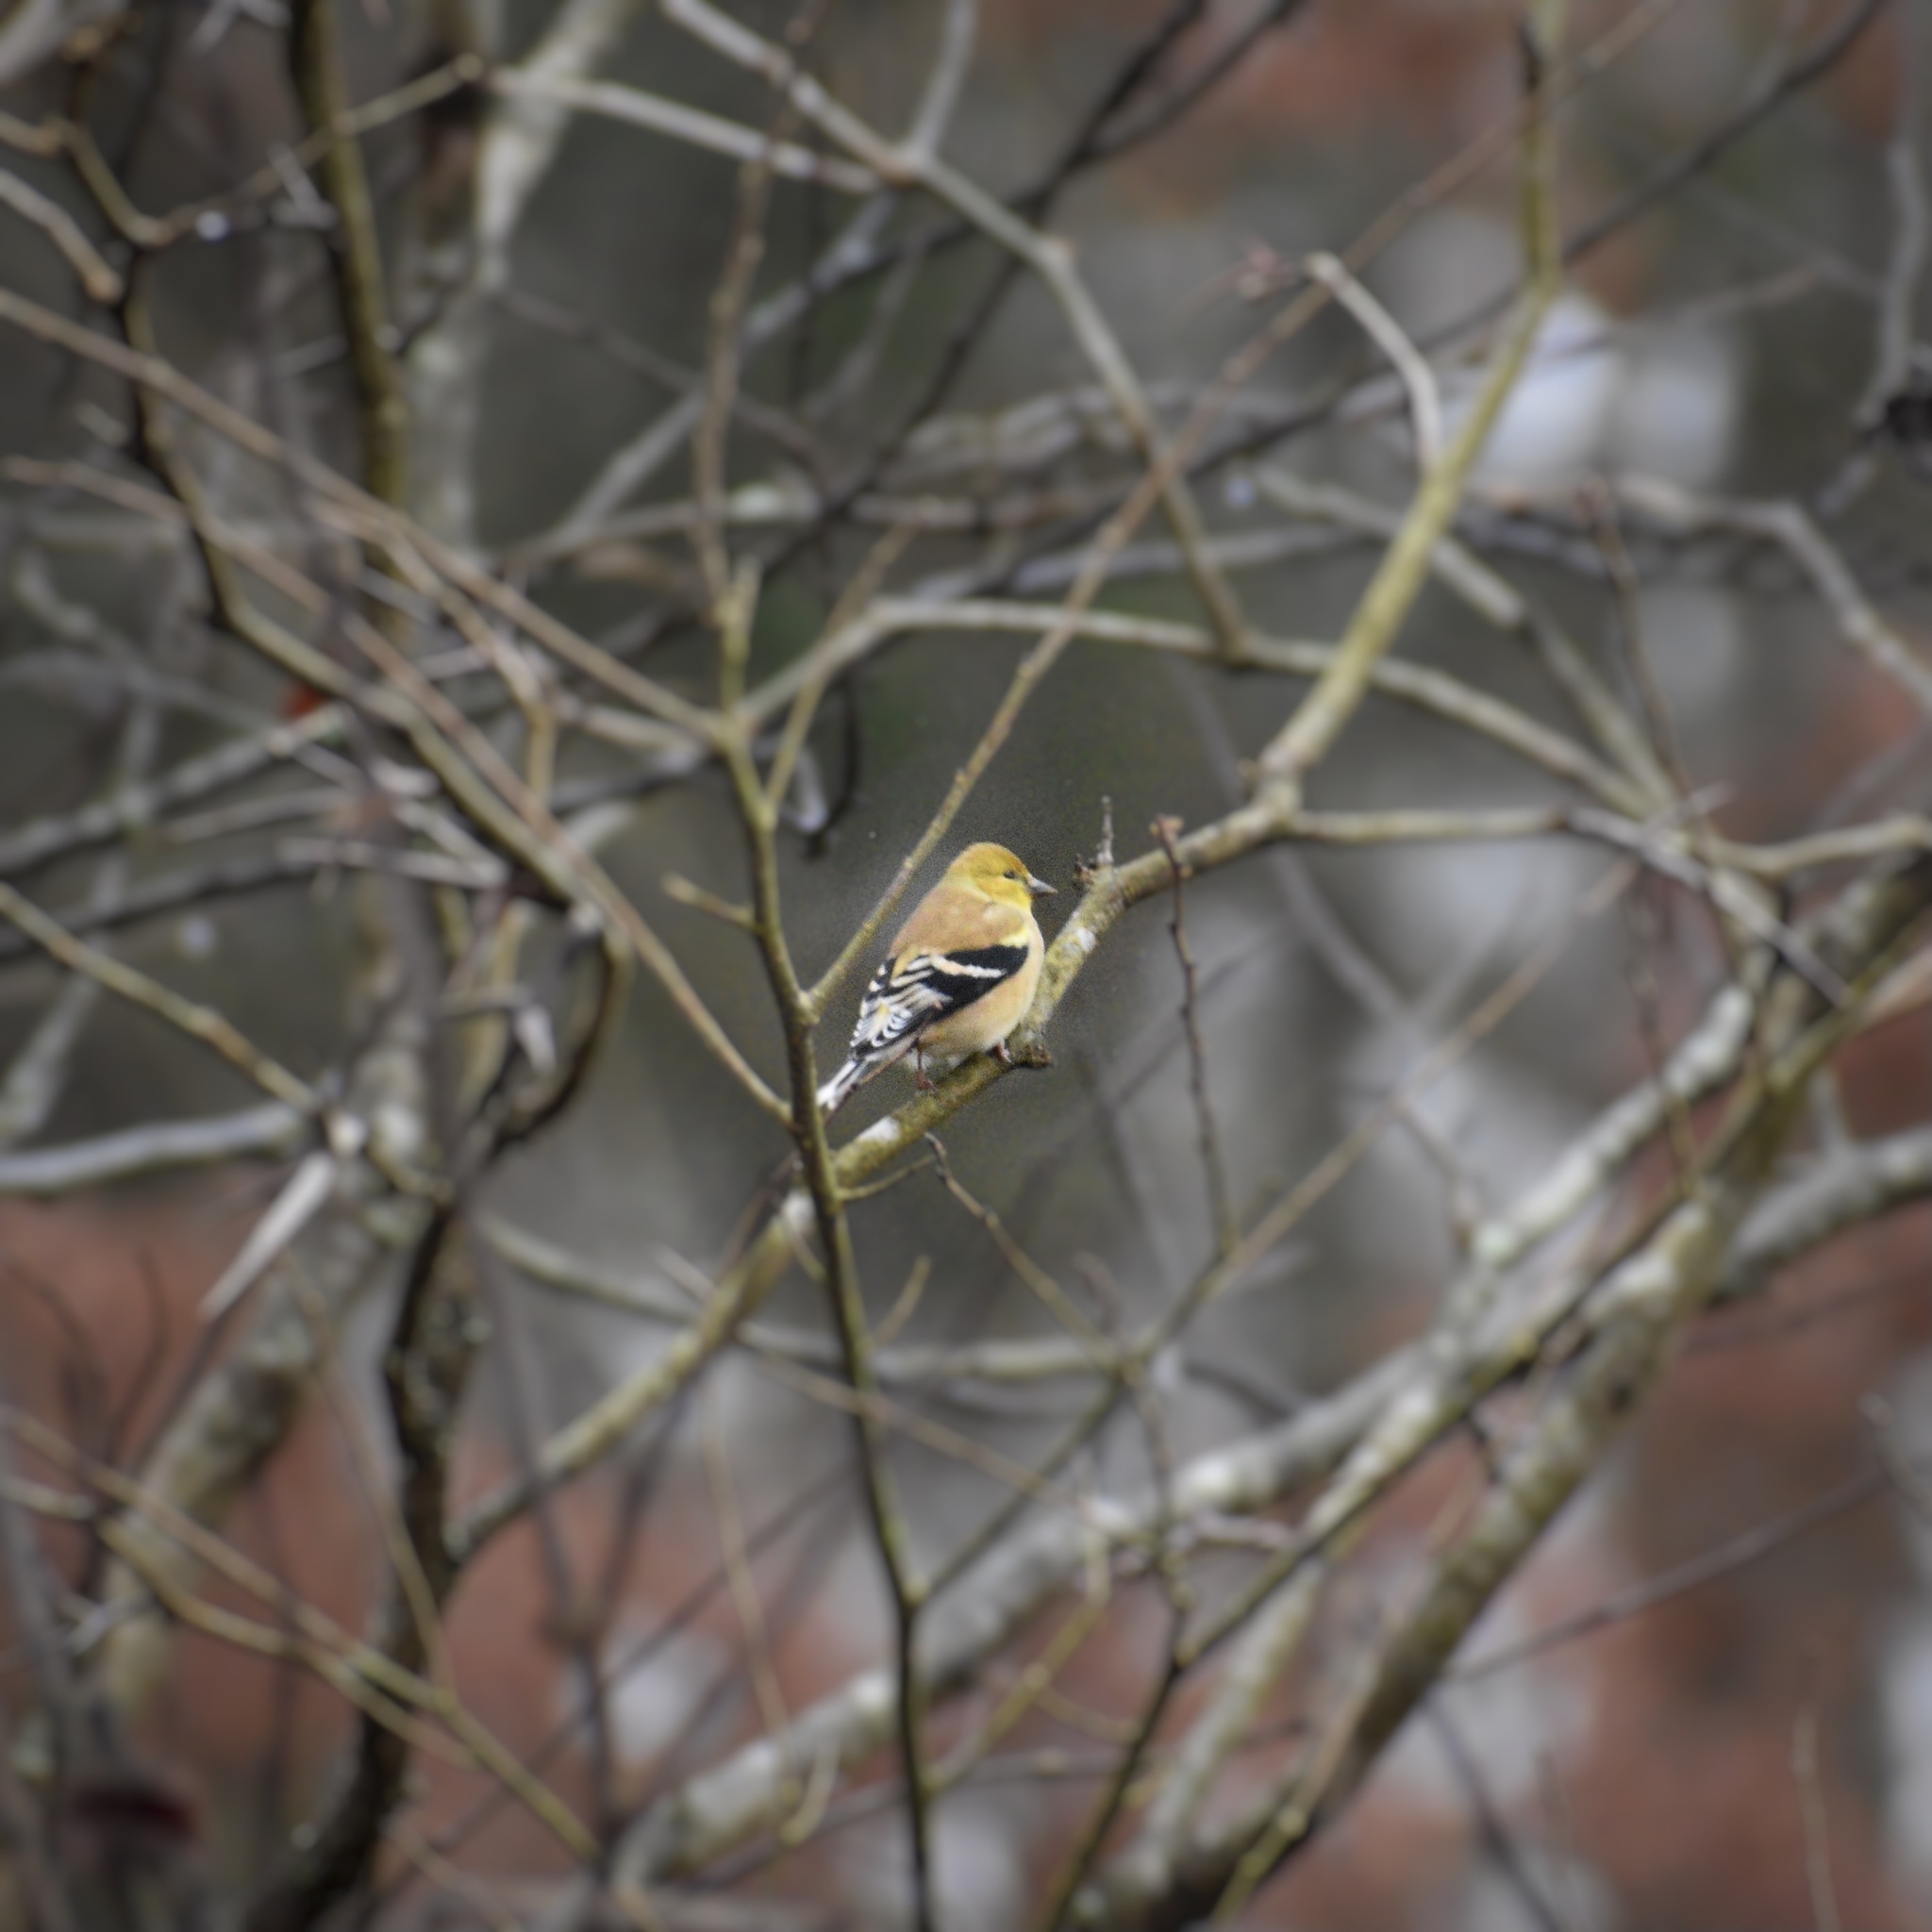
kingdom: Animalia
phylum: Chordata
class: Aves
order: Passeriformes
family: Fringillidae
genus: Spinus
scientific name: Spinus tristis
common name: American goldfinch
